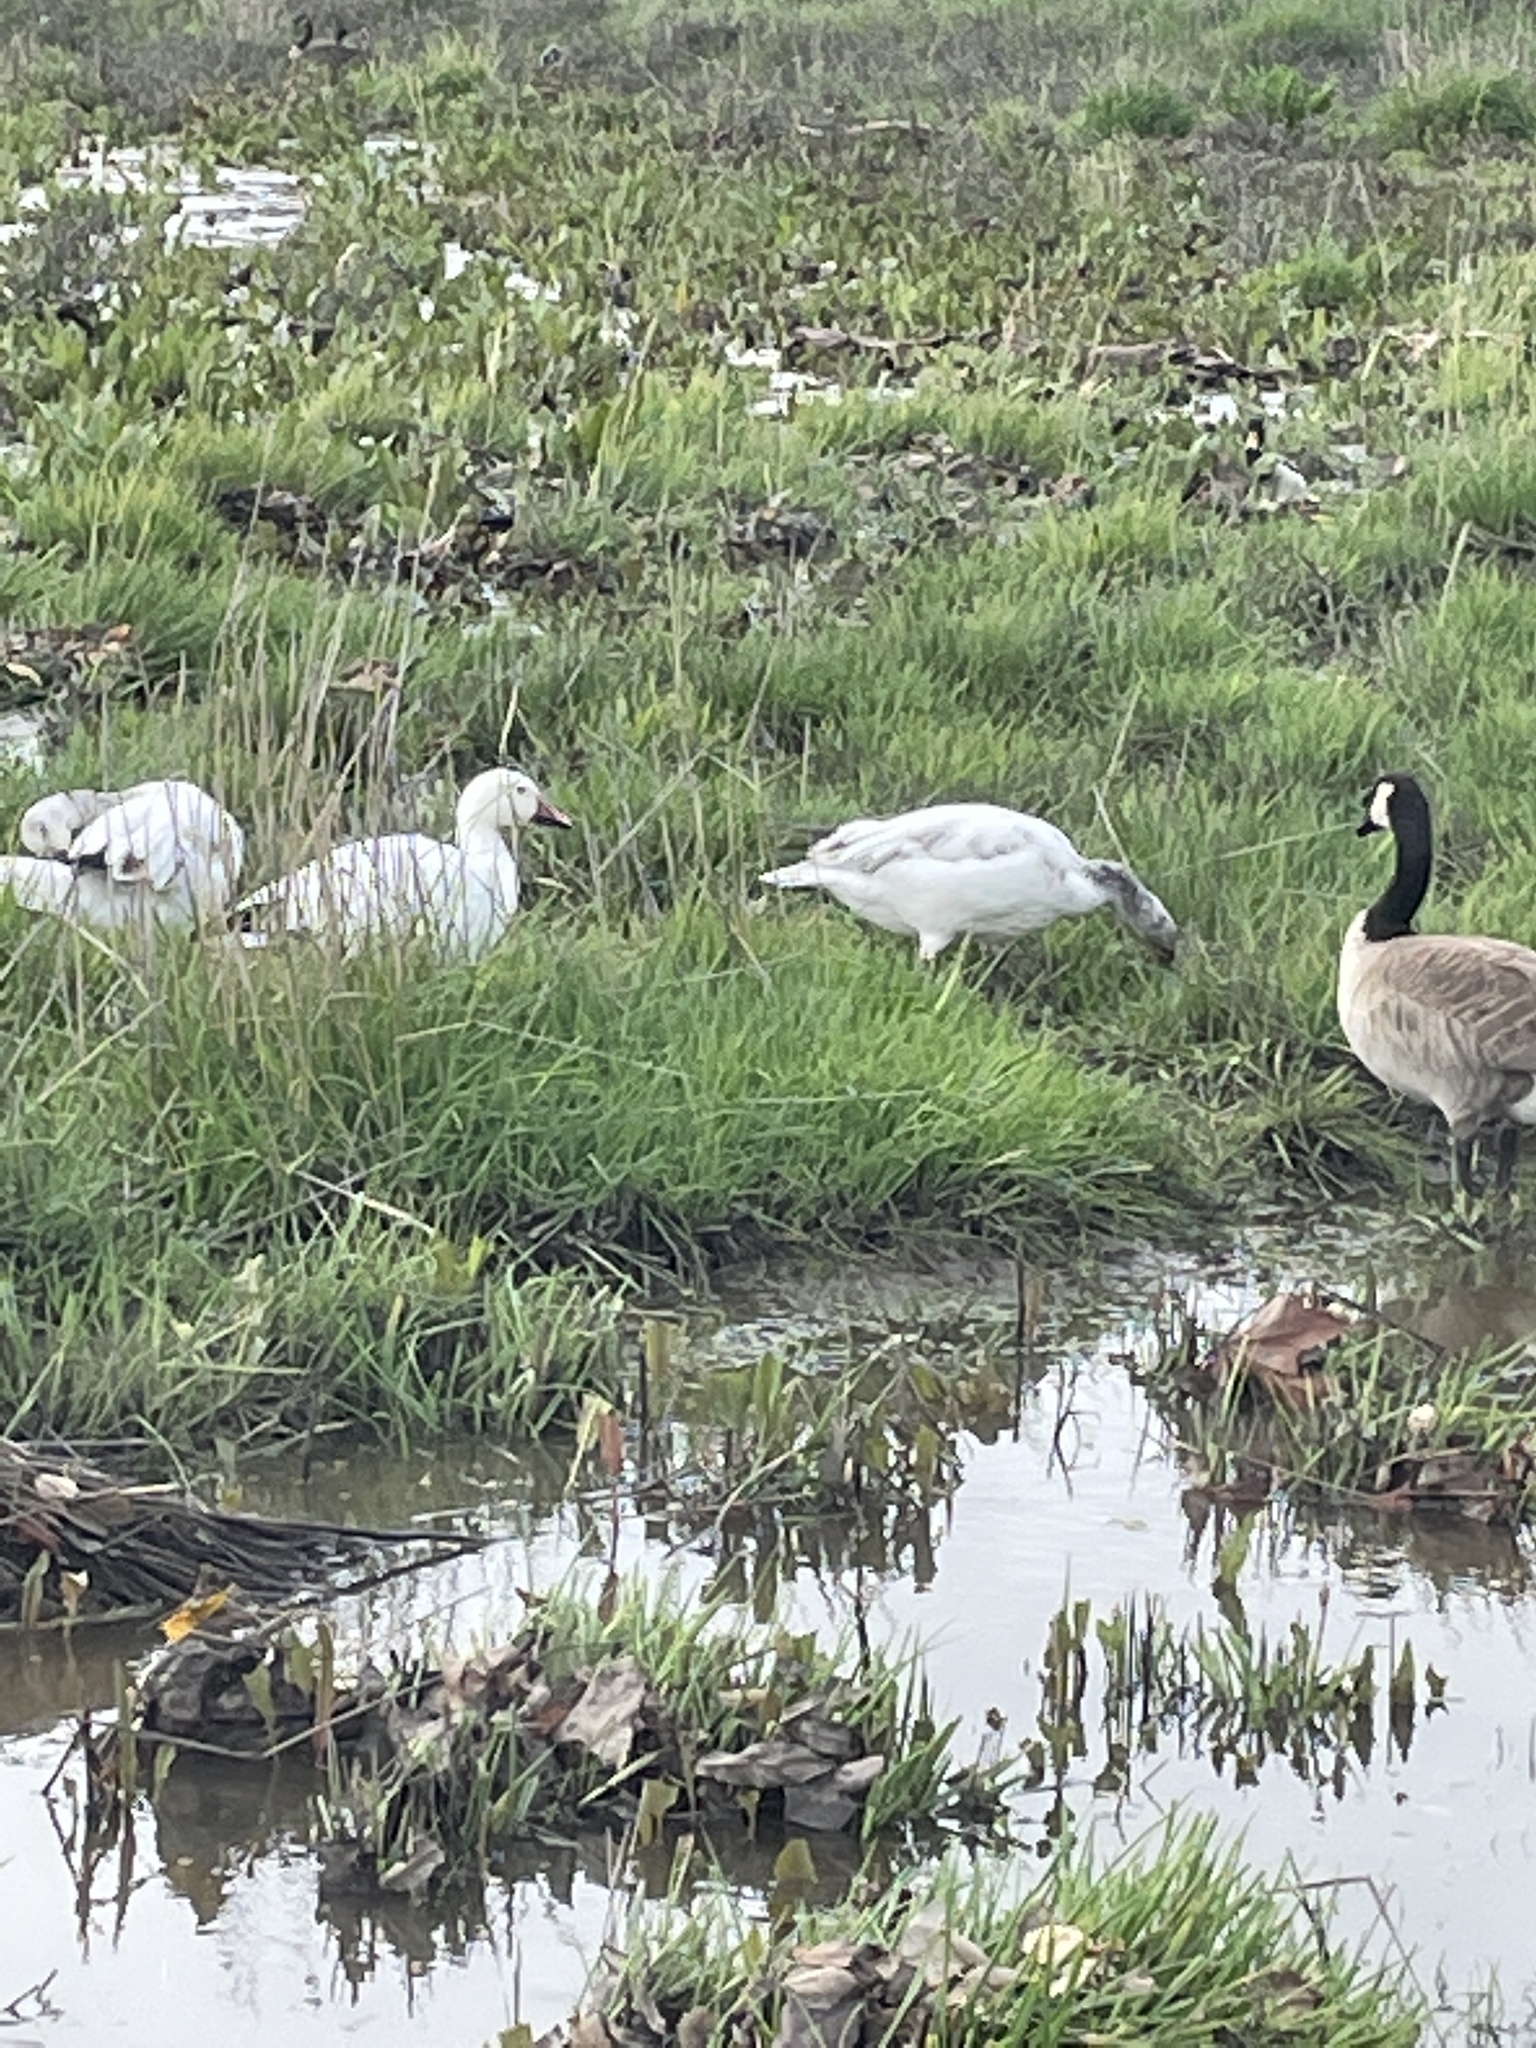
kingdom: Animalia
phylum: Chordata
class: Aves
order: Anseriformes
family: Anatidae
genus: Anser
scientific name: Anser caerulescens
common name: Snow goose
